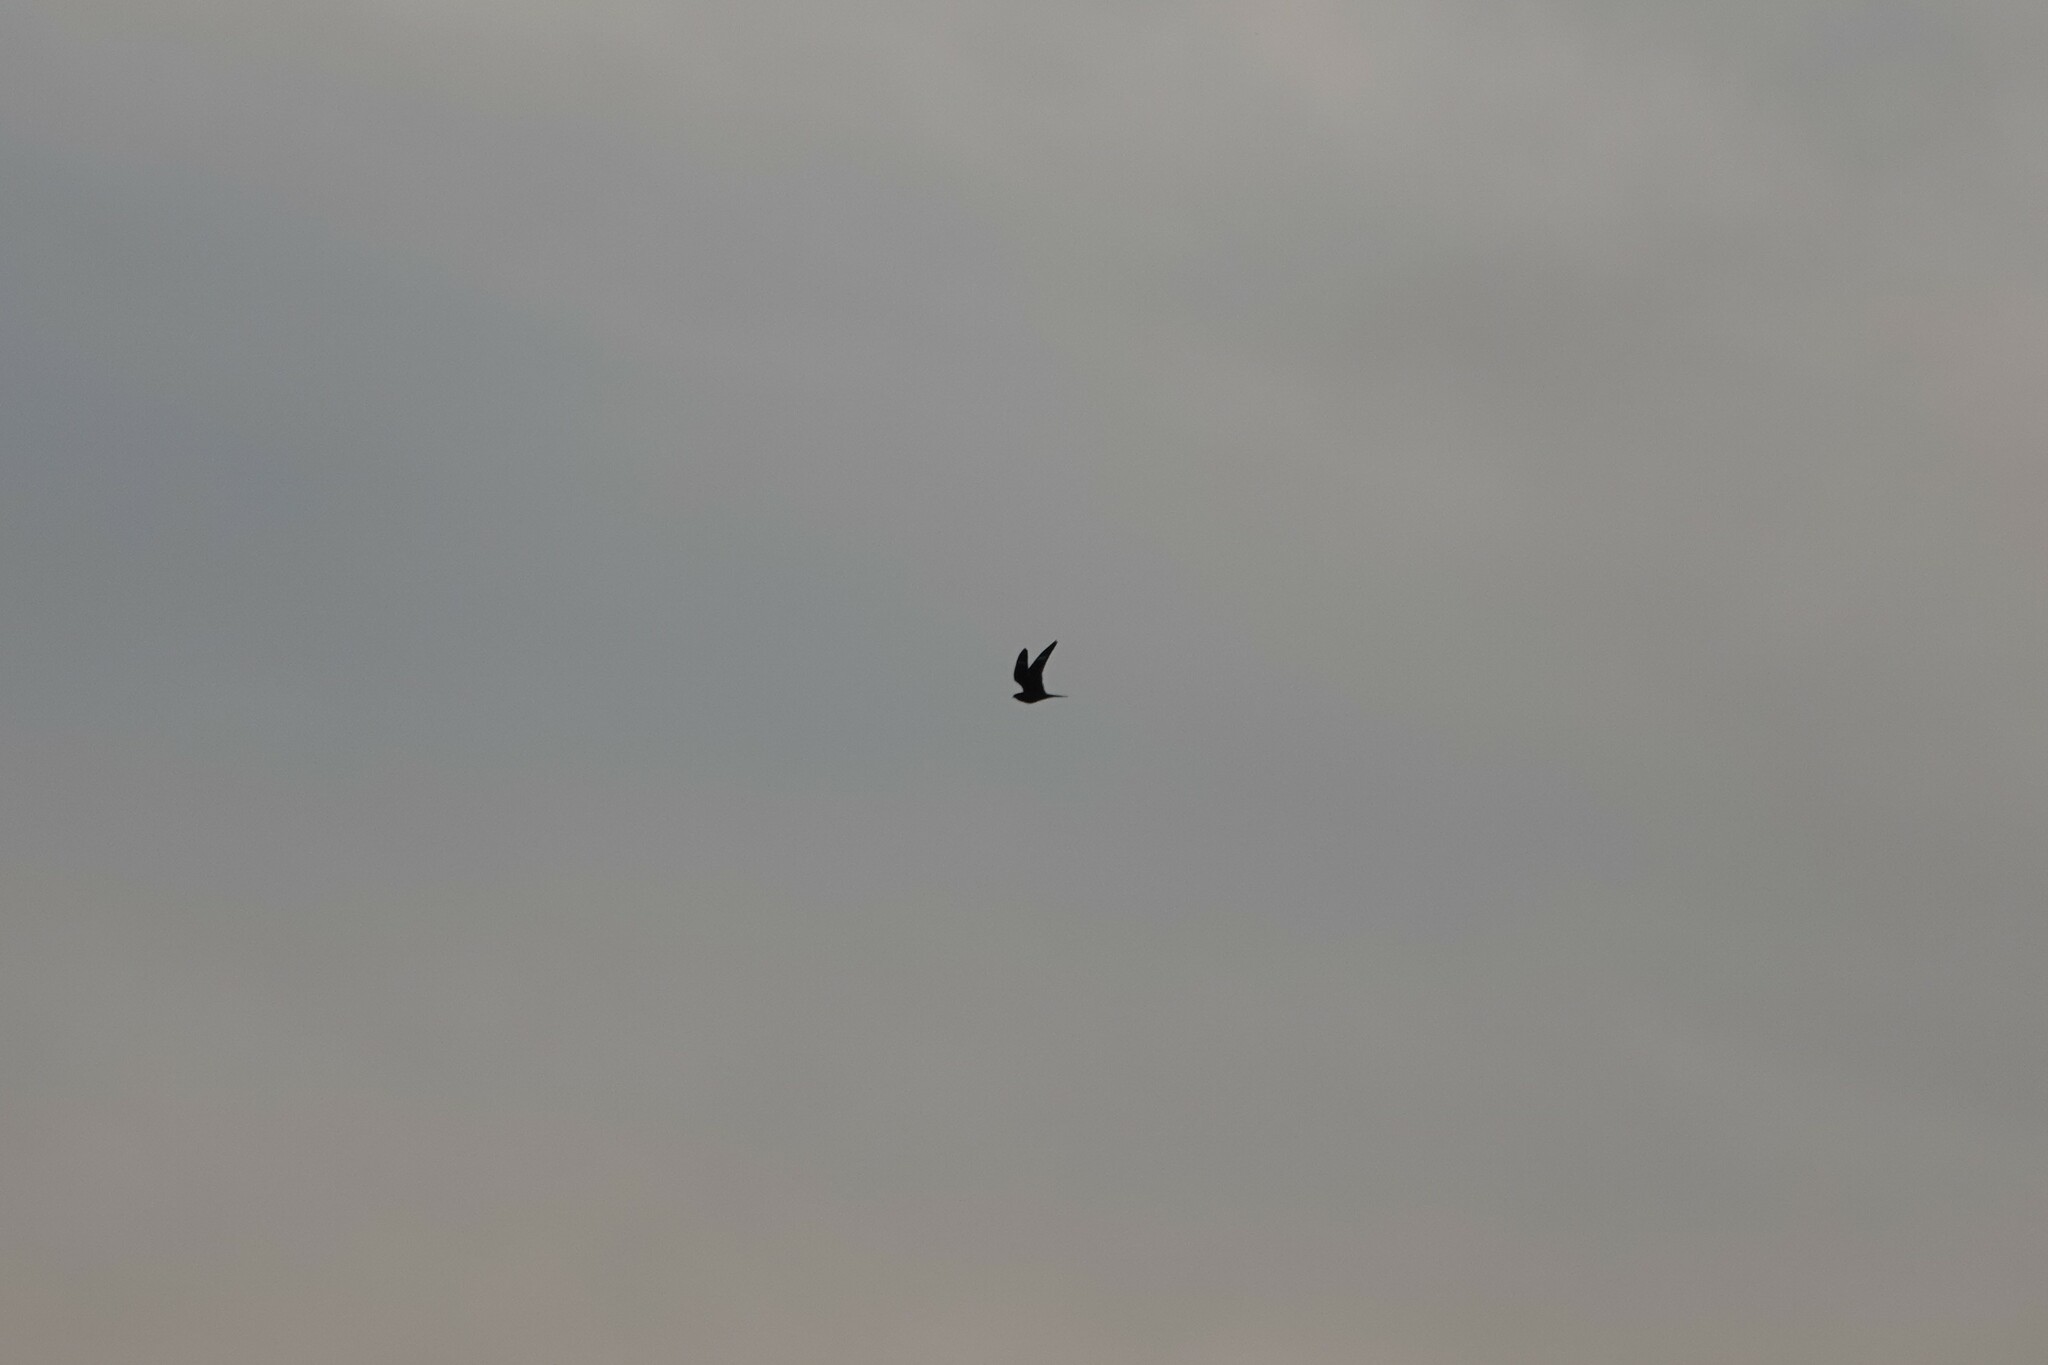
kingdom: Animalia
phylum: Chordata
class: Aves
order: Caprimulgiformes
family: Caprimulgidae
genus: Chordeiles
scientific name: Chordeiles minor
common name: Common nighthawk
